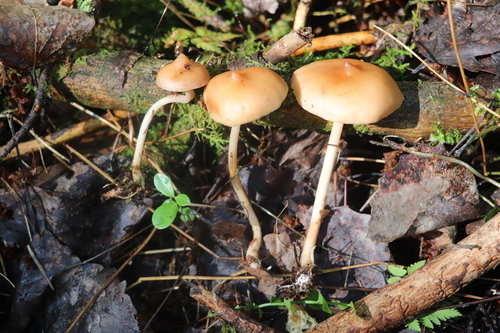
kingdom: Fungi
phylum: Basidiomycota
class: Agaricomycetes
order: Agaricales
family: Omphalotaceae
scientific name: Omphalotaceae
